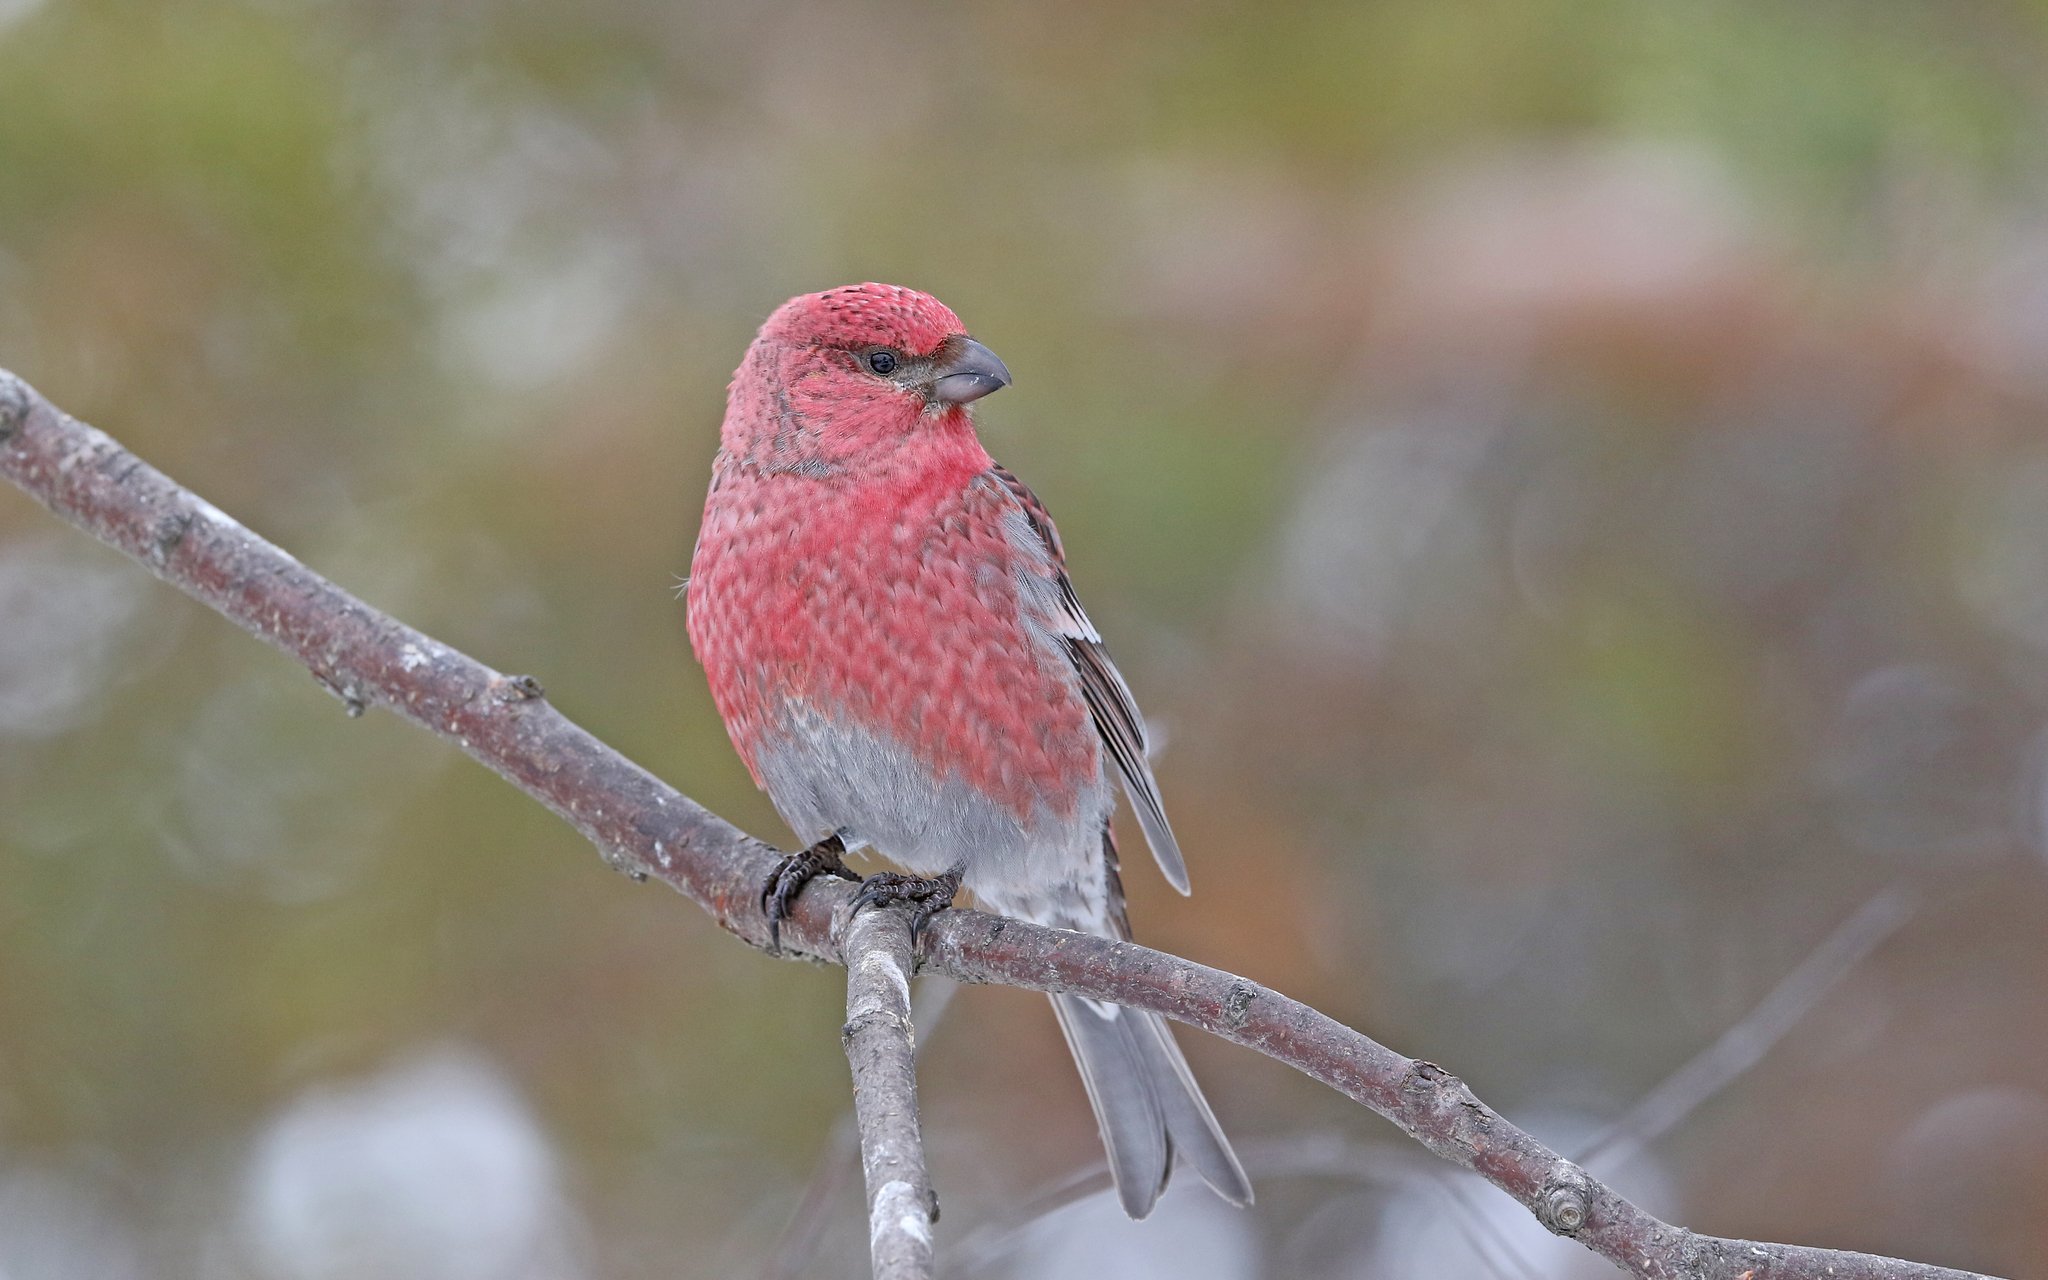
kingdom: Animalia
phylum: Chordata
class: Aves
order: Passeriformes
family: Fringillidae
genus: Pinicola
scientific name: Pinicola enucleator
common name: Pine grosbeak
